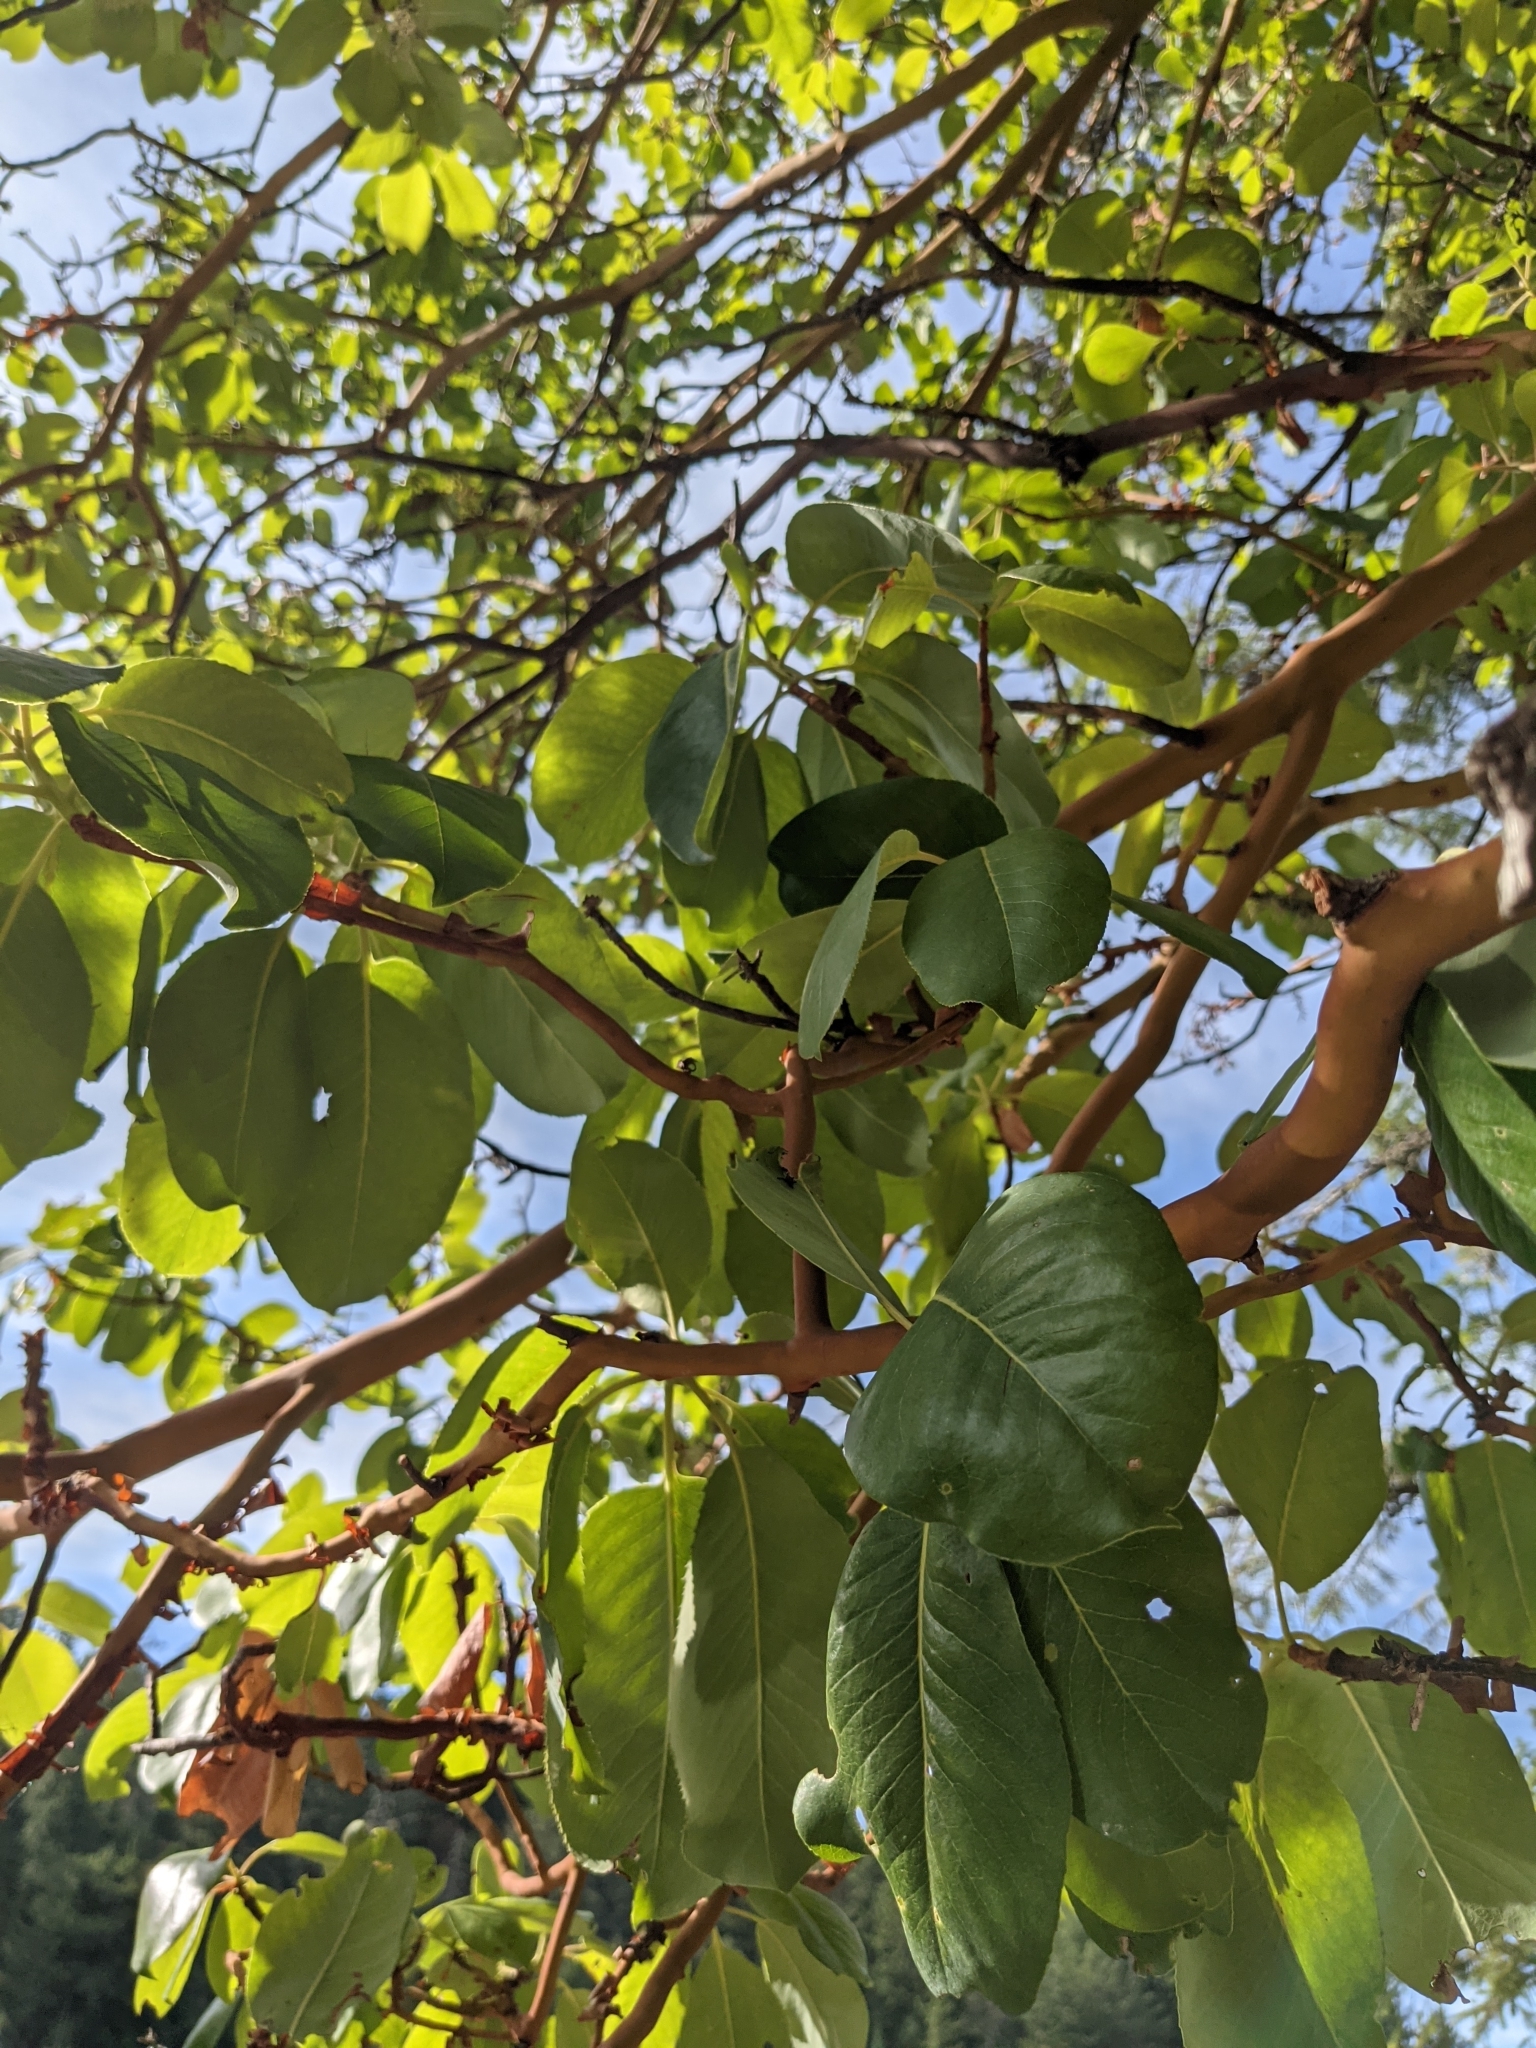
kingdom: Plantae
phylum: Tracheophyta
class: Magnoliopsida
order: Ericales
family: Ericaceae
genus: Arbutus
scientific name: Arbutus menziesii
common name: Pacific madrone
